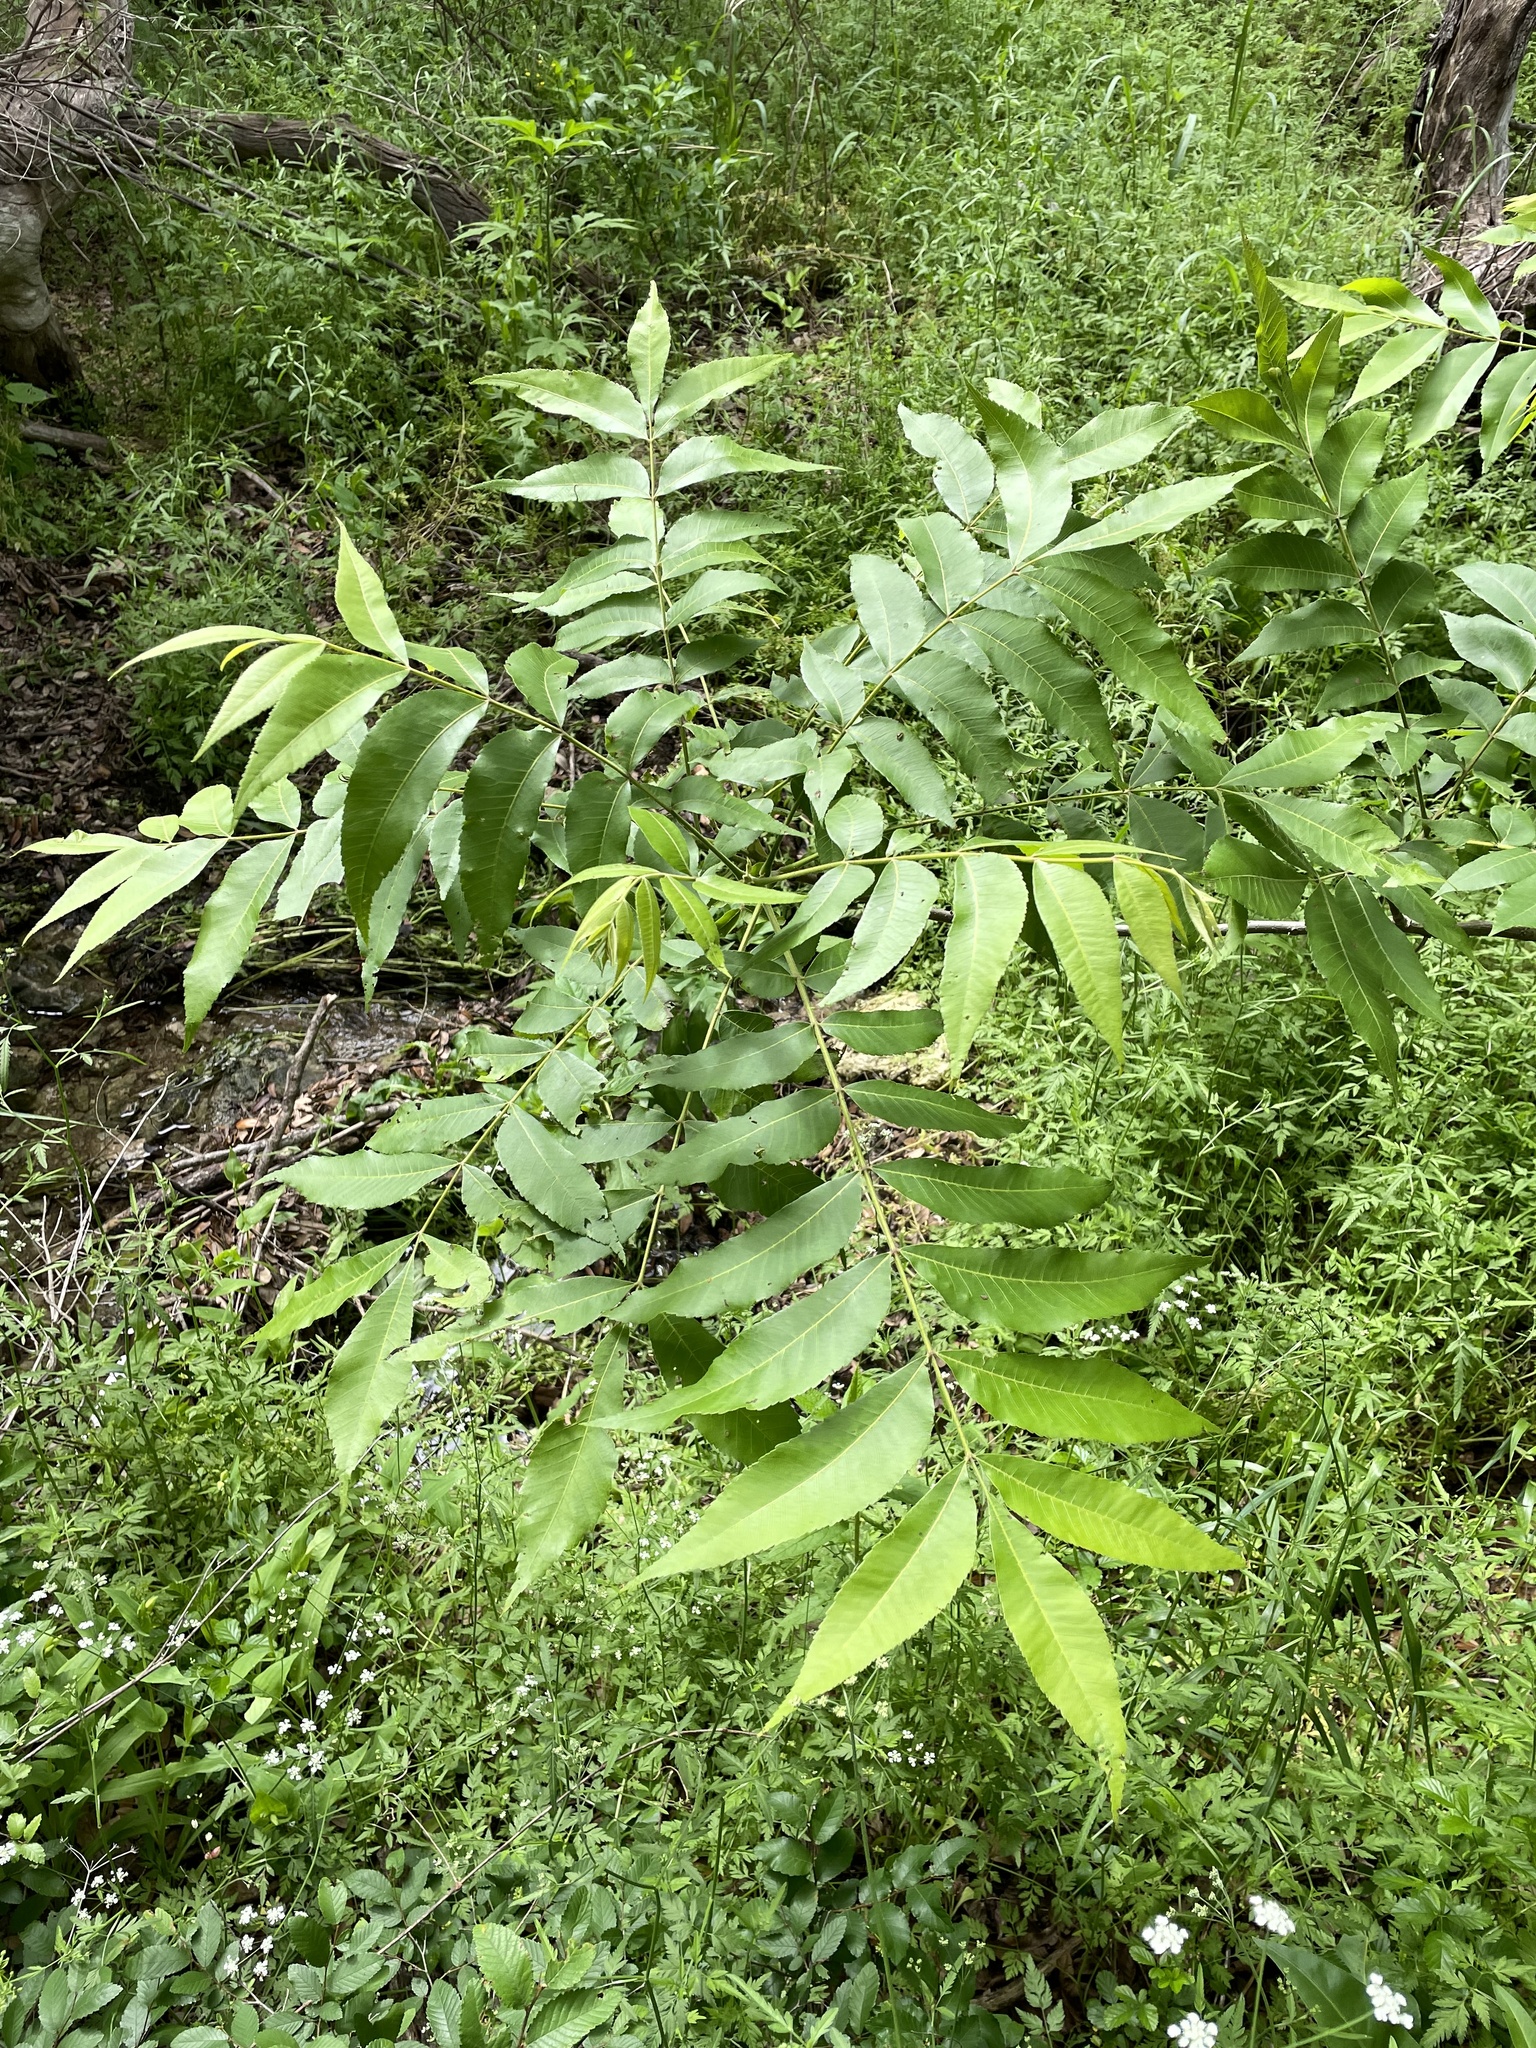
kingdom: Plantae
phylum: Tracheophyta
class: Magnoliopsida
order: Fagales
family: Juglandaceae
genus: Carya
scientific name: Carya illinoinensis
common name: Pecan
